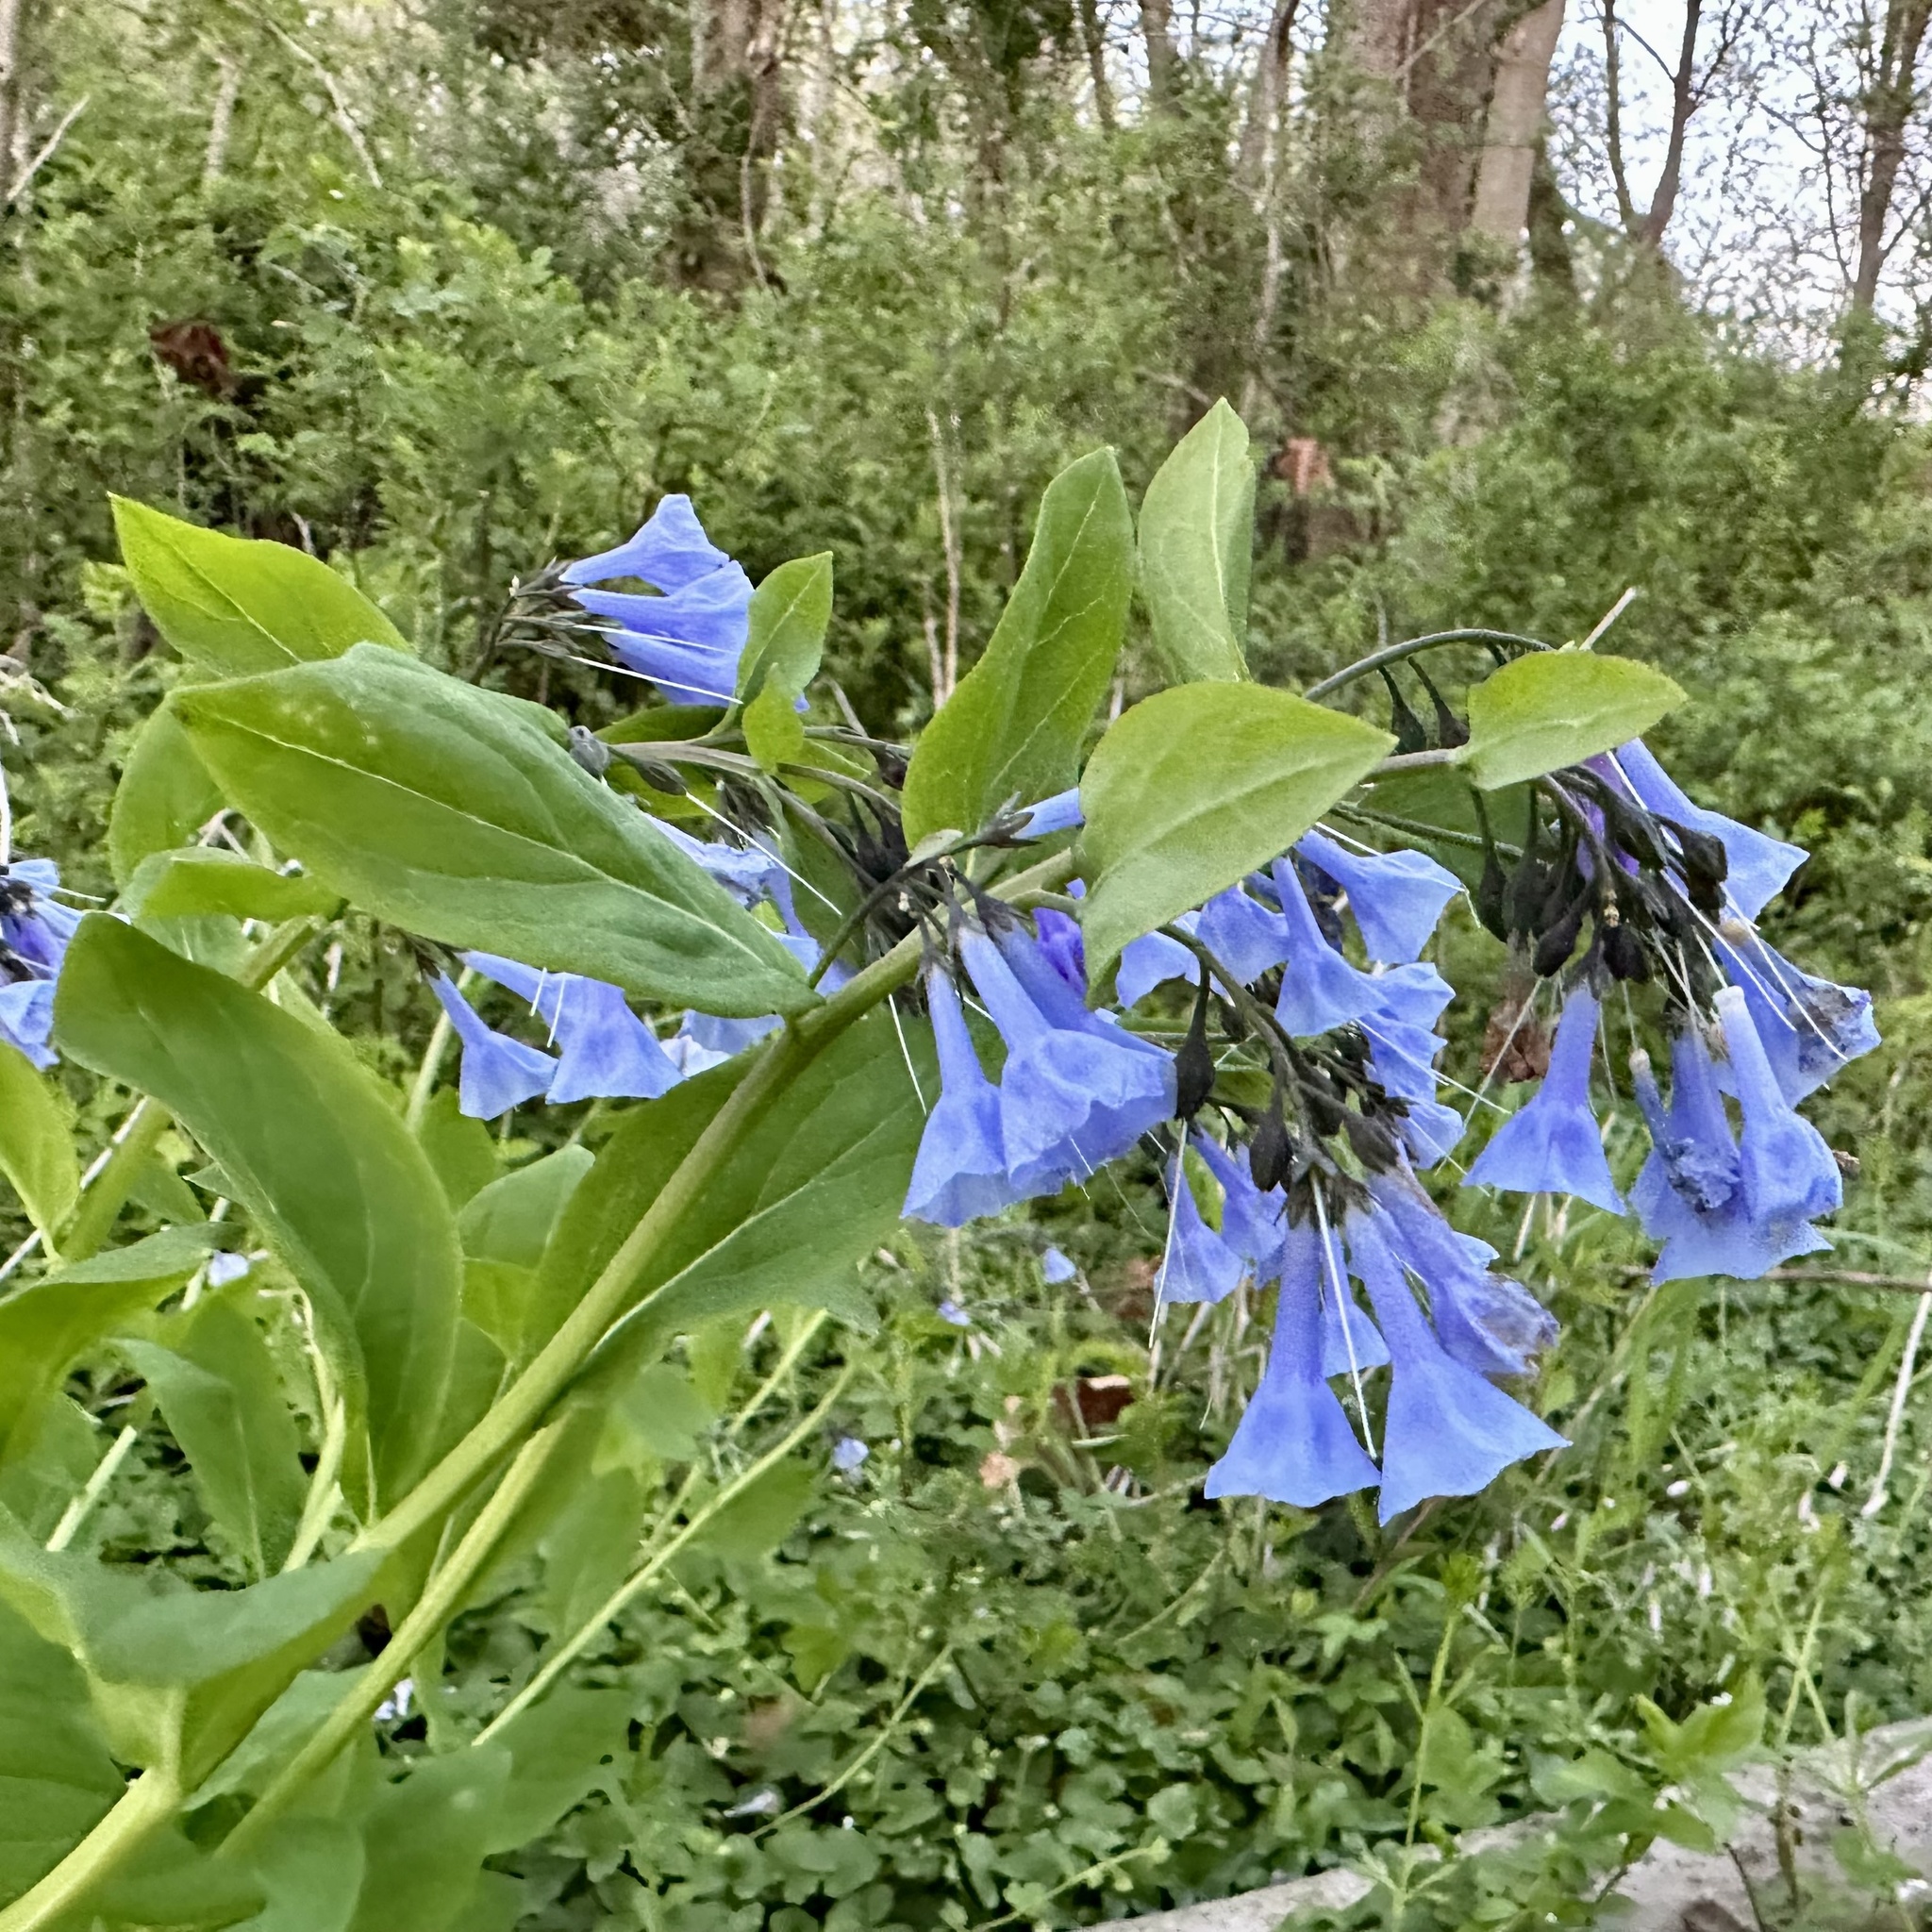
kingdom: Plantae
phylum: Tracheophyta
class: Magnoliopsida
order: Boraginales
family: Boraginaceae
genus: Mertensia
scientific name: Mertensia virginica
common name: Virginia bluebells
